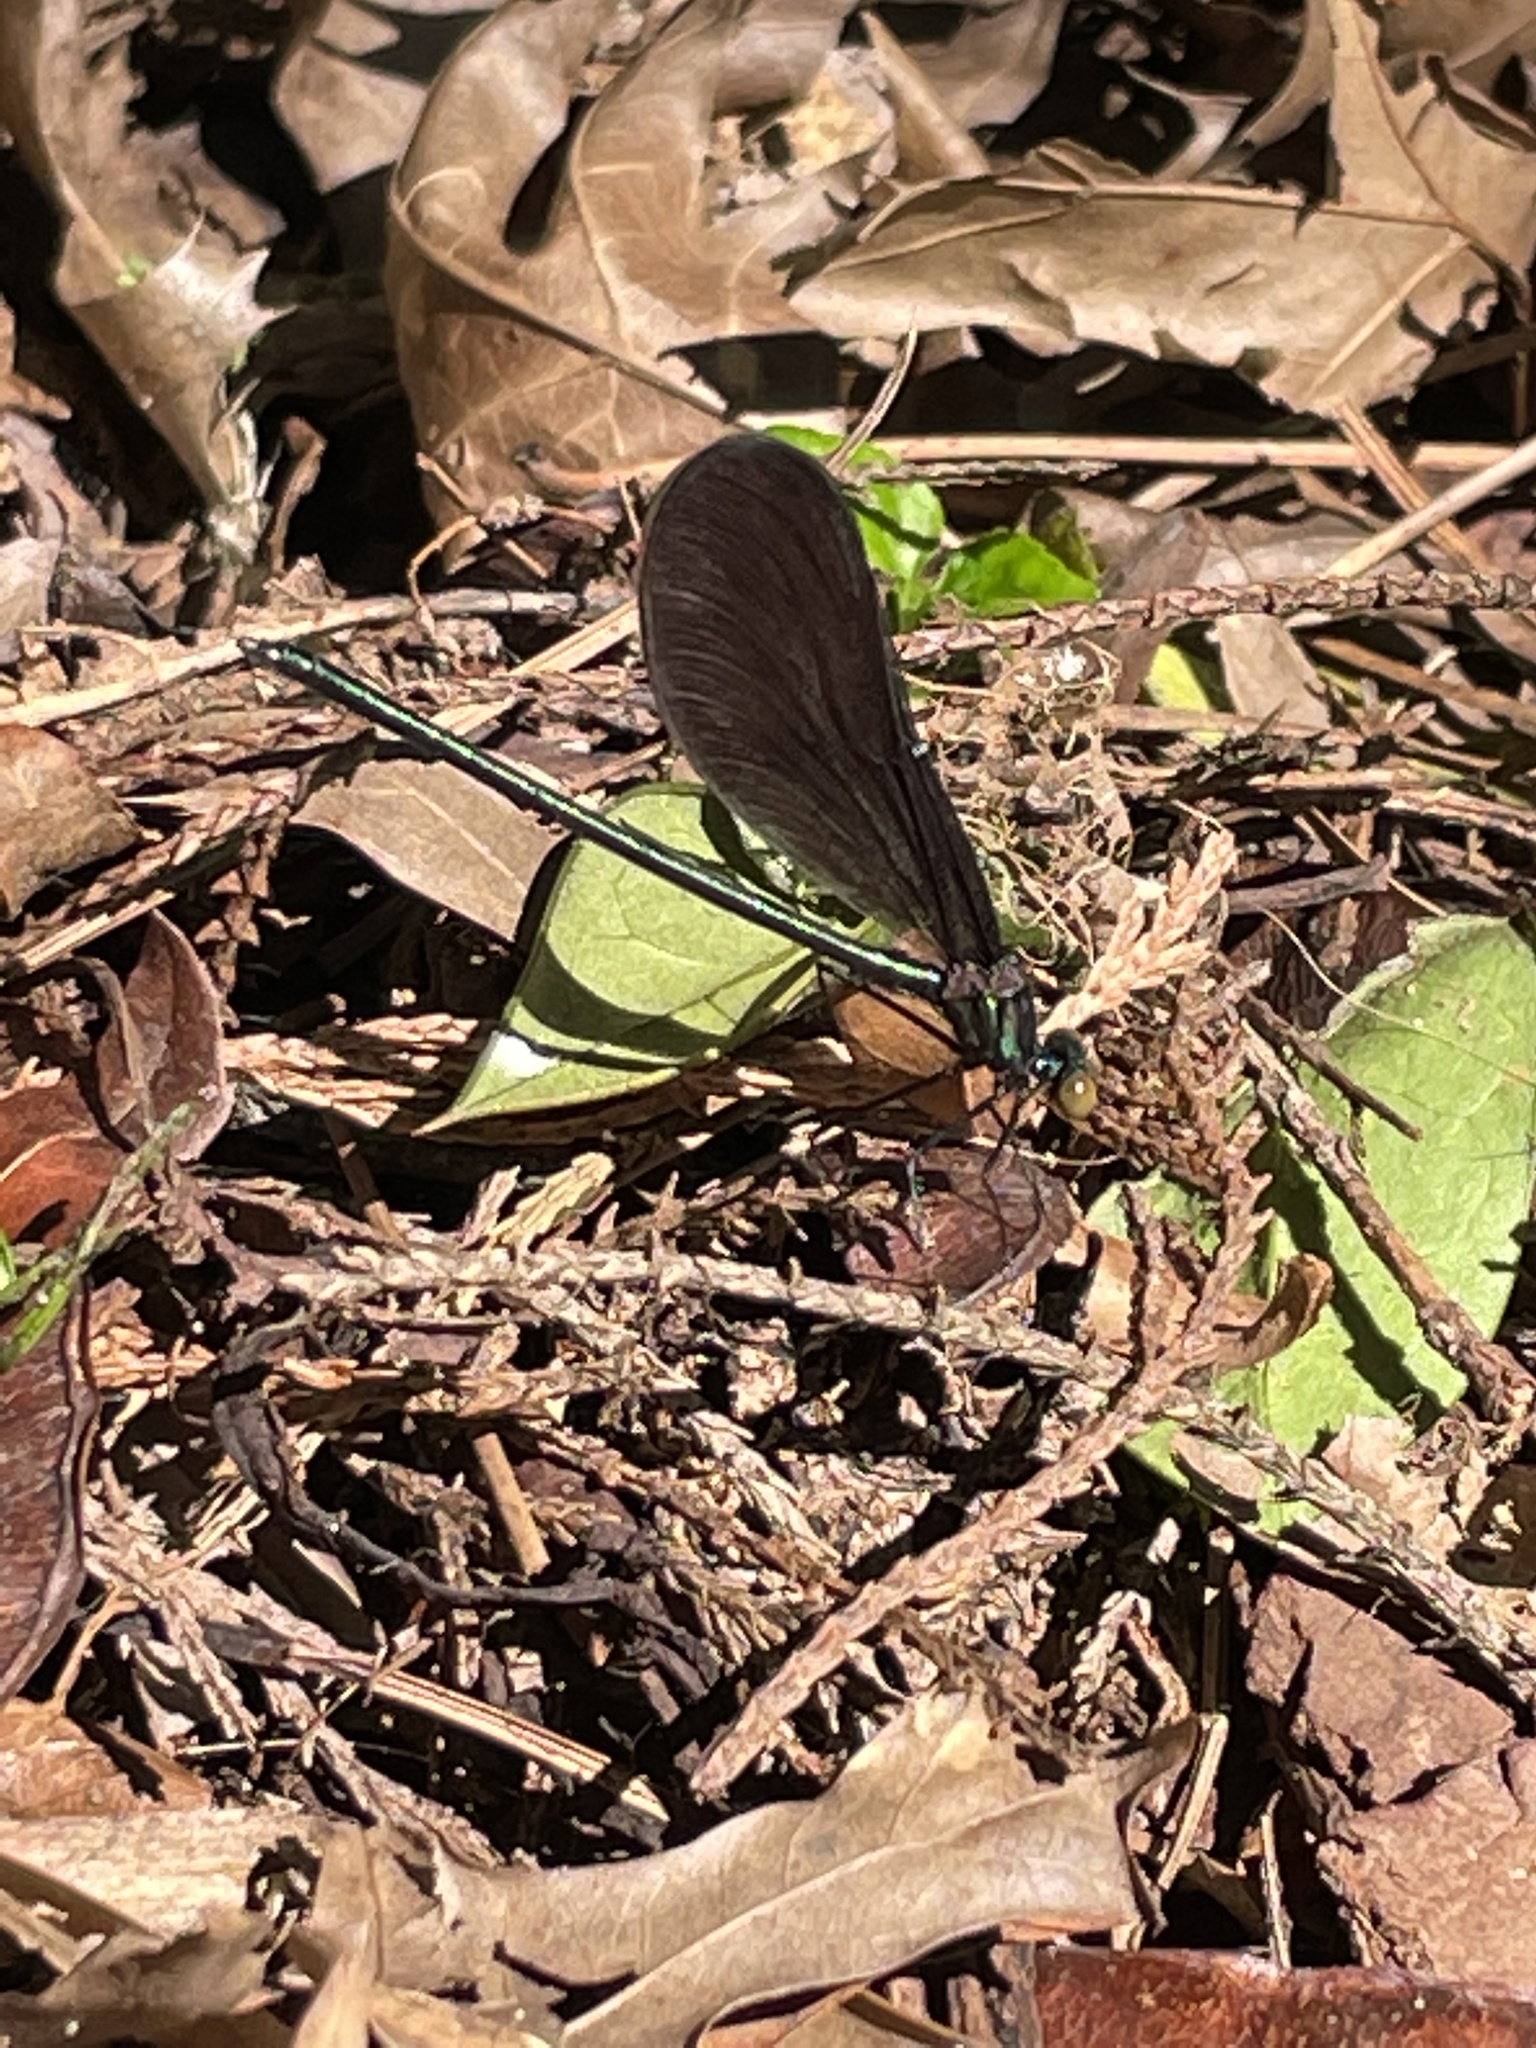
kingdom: Animalia
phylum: Arthropoda
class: Insecta
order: Odonata
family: Calopterygidae
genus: Calopteryx
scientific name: Calopteryx maculata
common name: Ebony jewelwing
